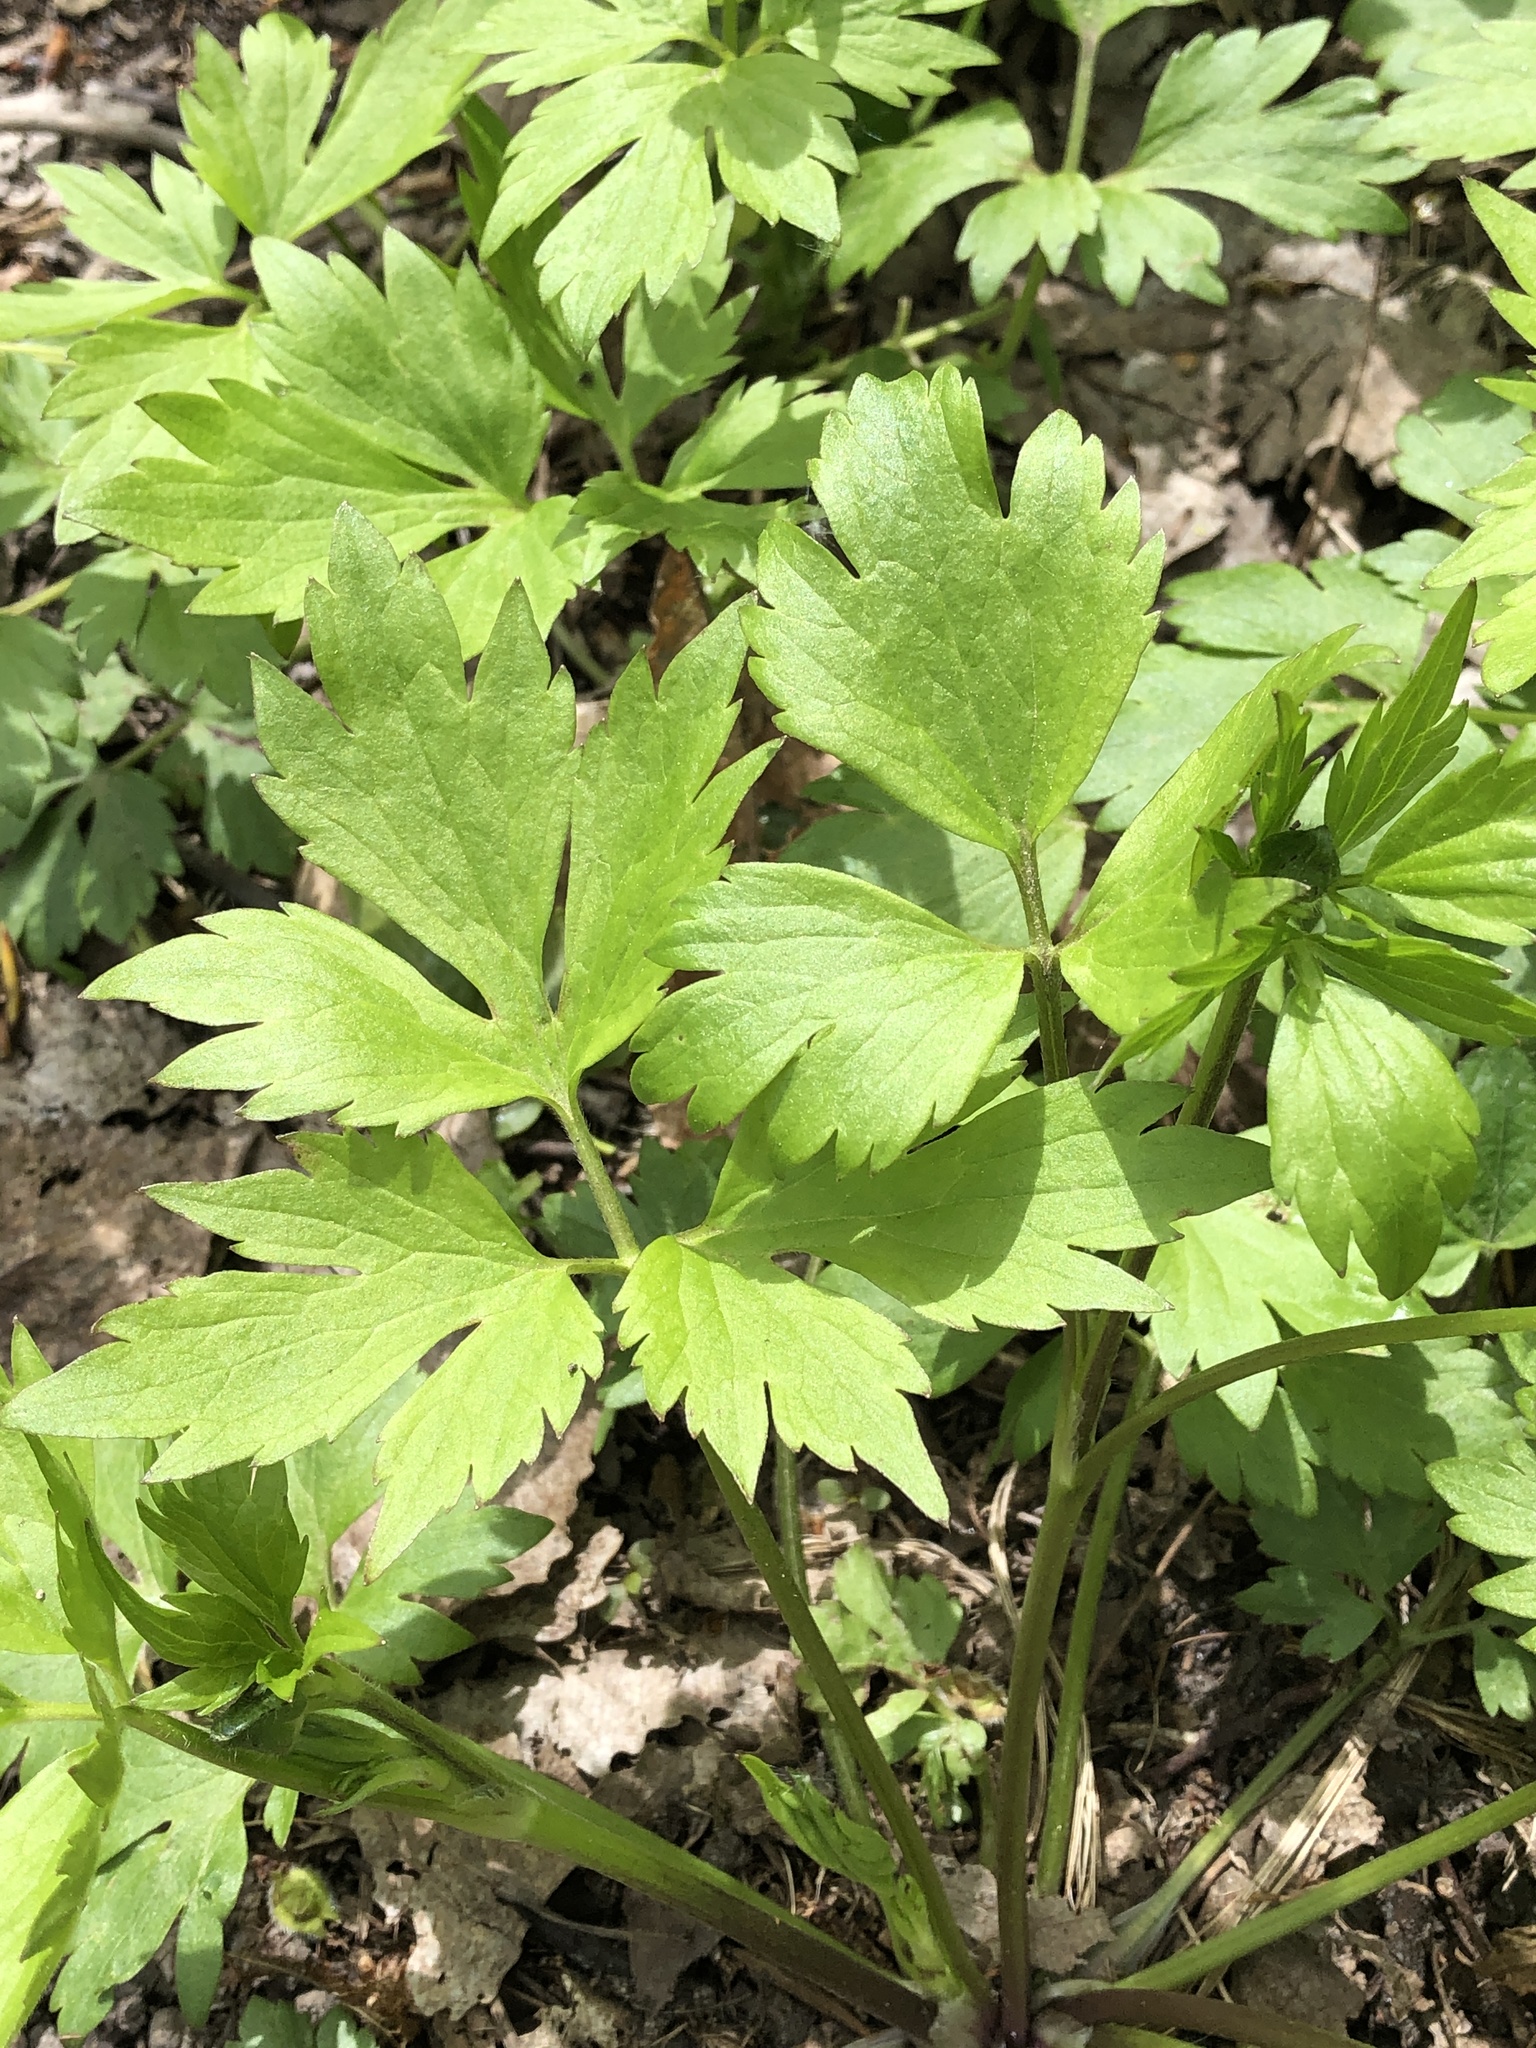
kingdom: Plantae
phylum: Tracheophyta
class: Magnoliopsida
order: Ranunculales
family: Ranunculaceae
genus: Ranunculus
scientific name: Ranunculus hispidus
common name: Bristly buttercup
